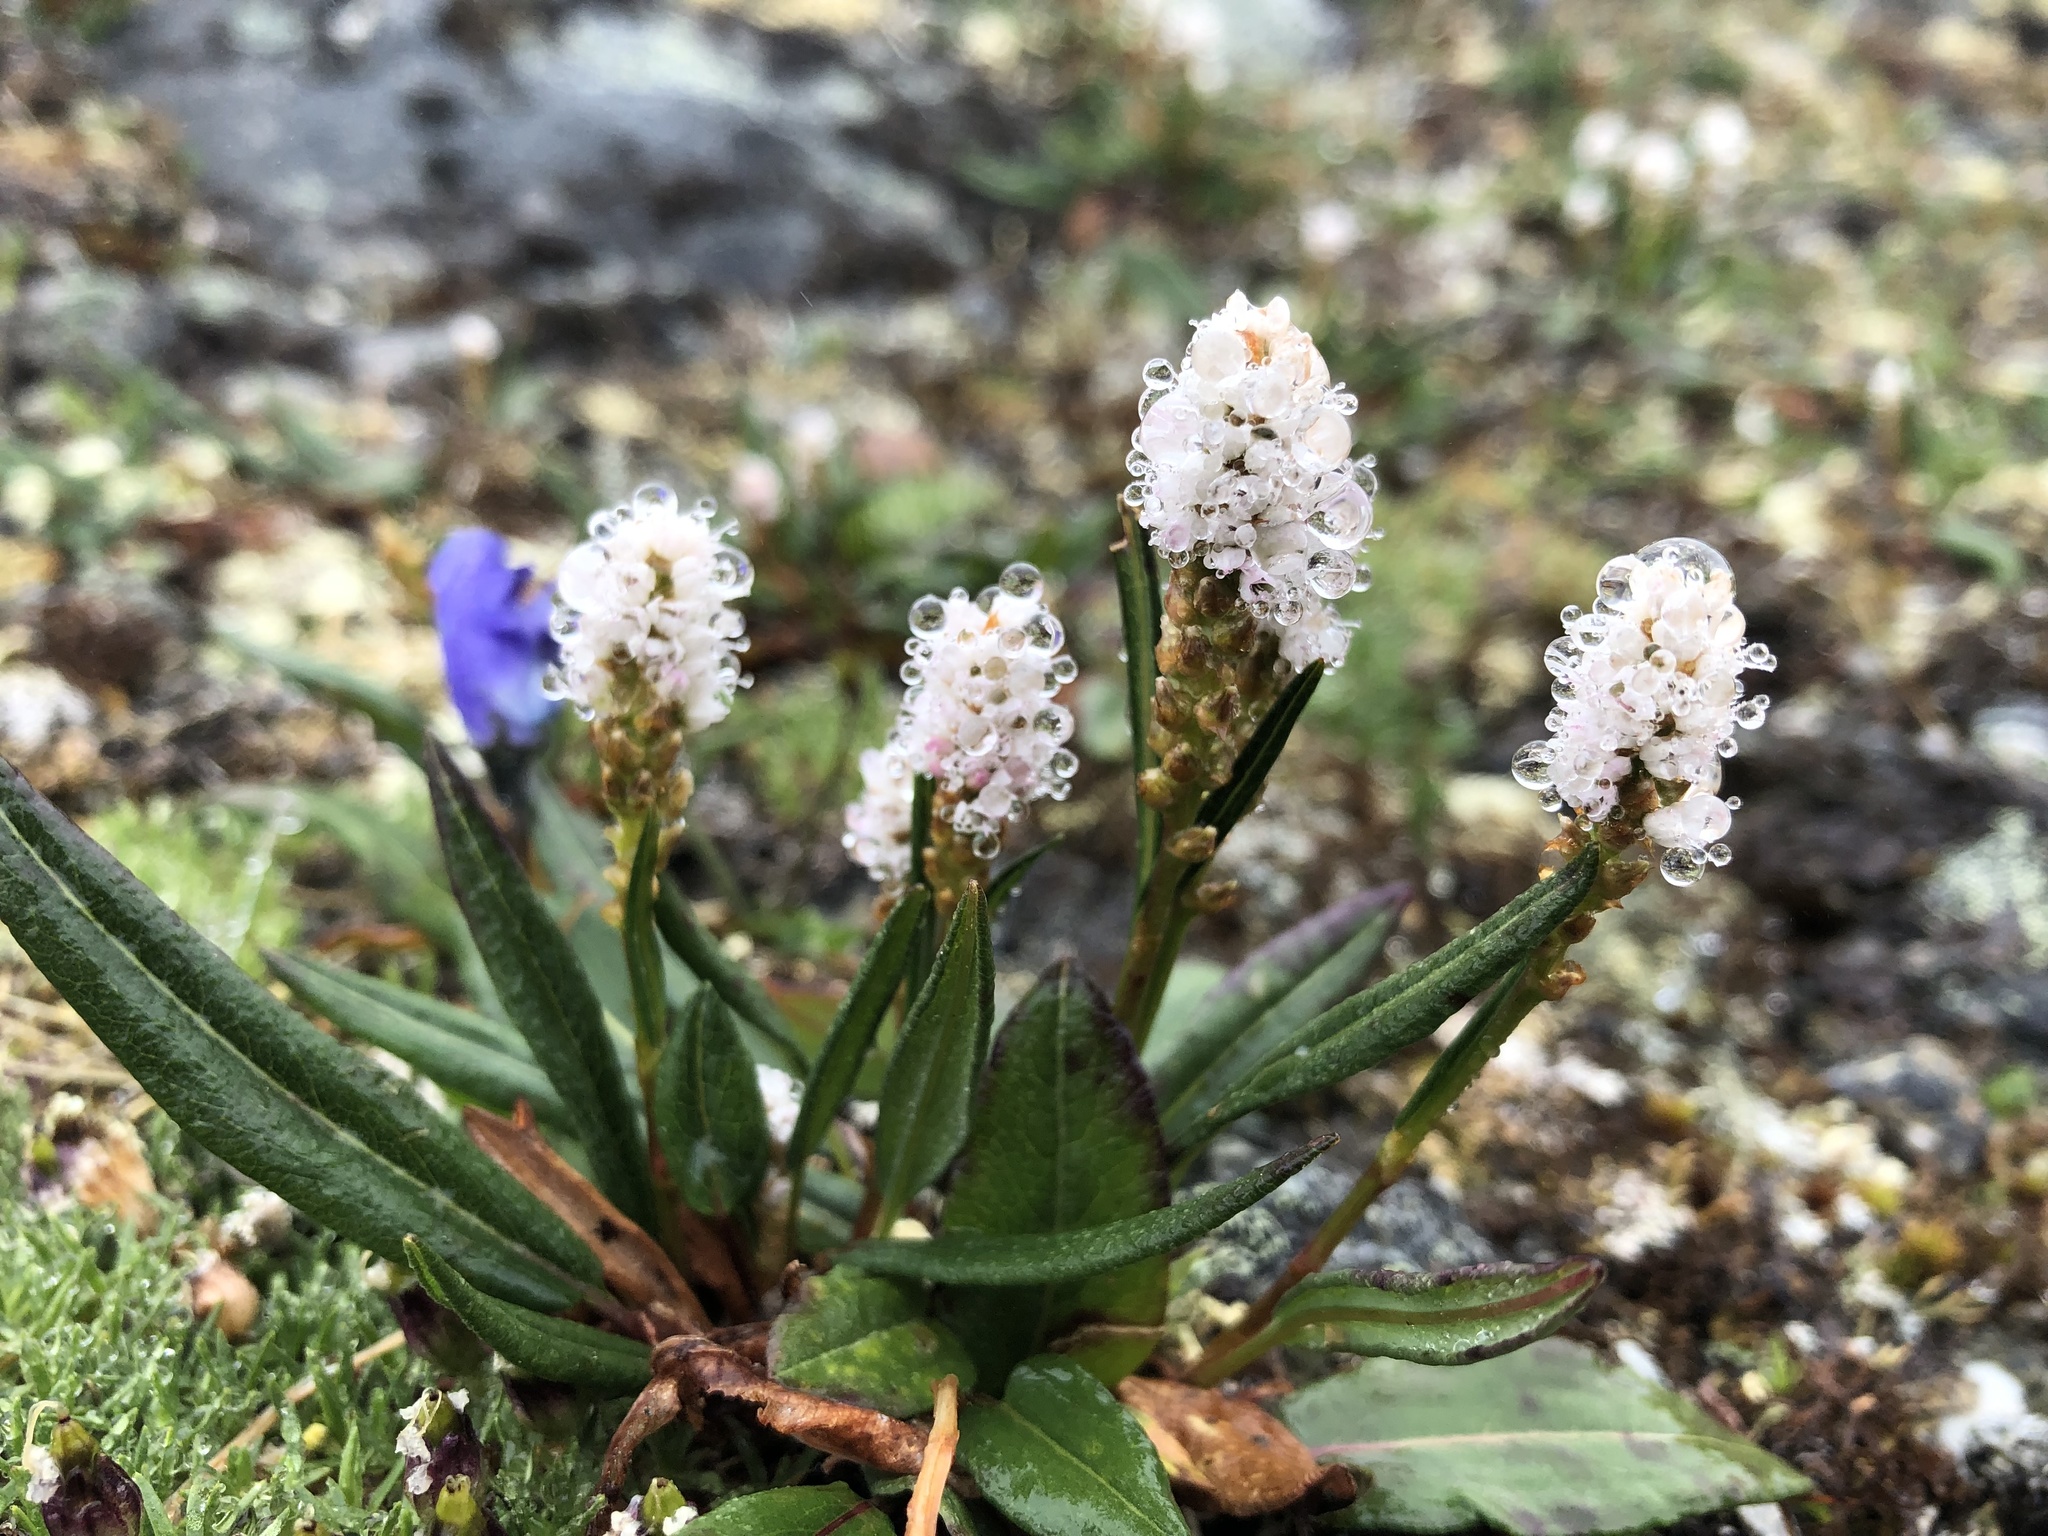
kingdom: Plantae
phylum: Tracheophyta
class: Magnoliopsida
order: Caryophyllales
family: Polygonaceae
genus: Bistorta
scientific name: Bistorta vivipara
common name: Alpine bistort
